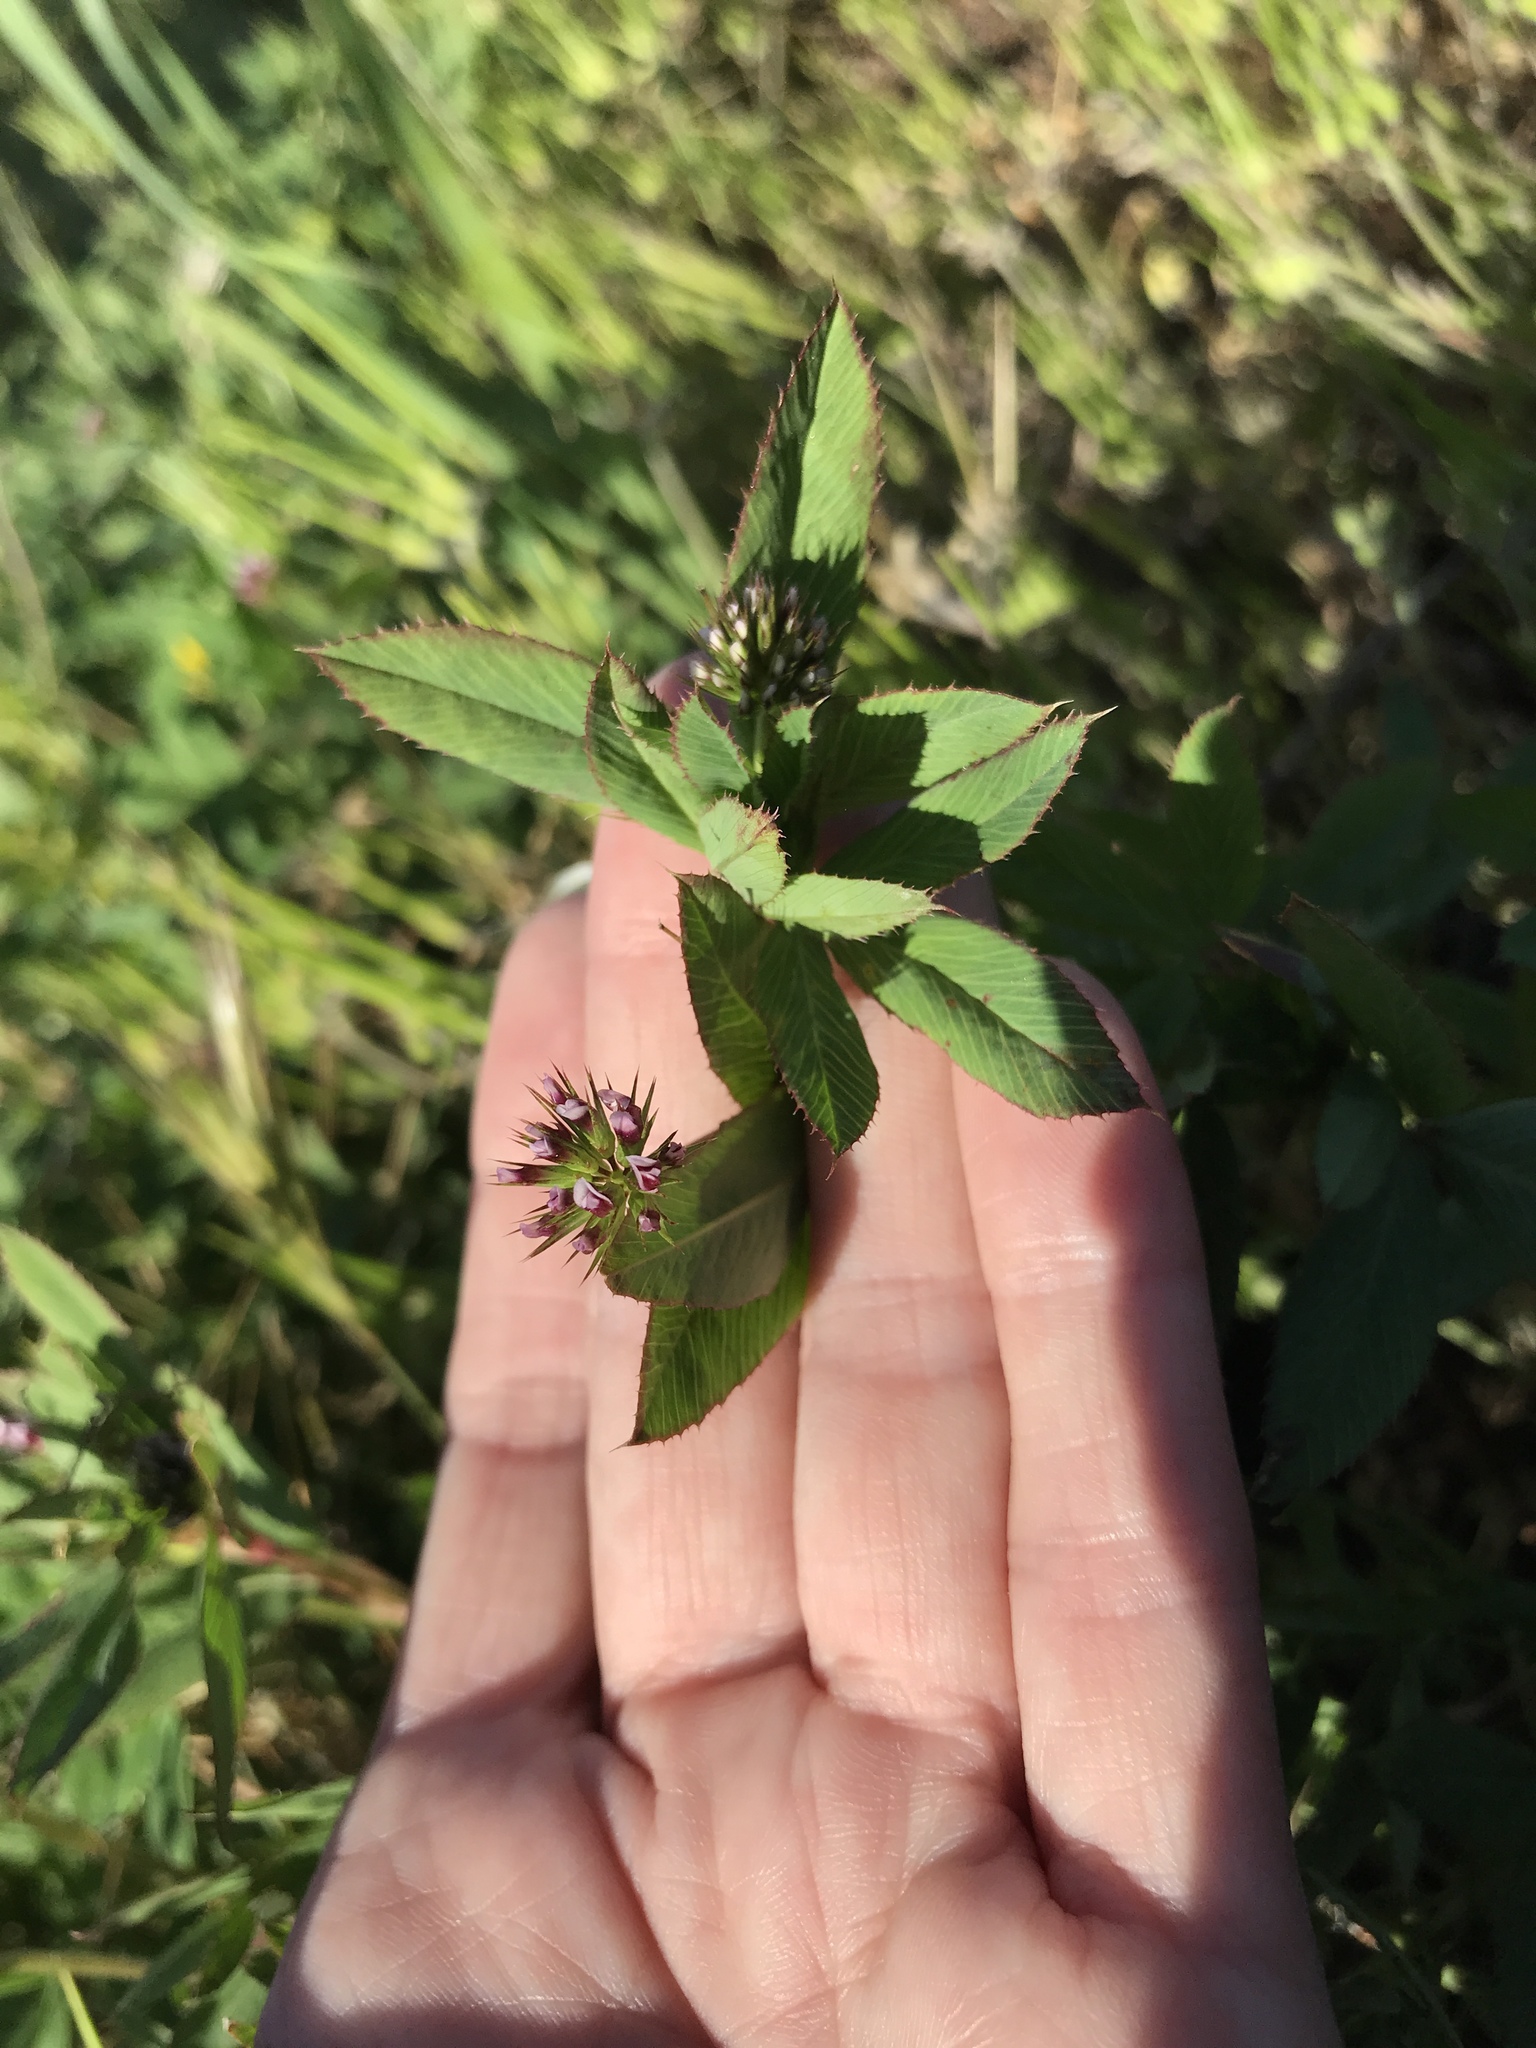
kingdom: Plantae
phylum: Tracheophyta
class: Magnoliopsida
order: Fabales
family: Fabaceae
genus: Trifolium
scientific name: Trifolium palmeri
